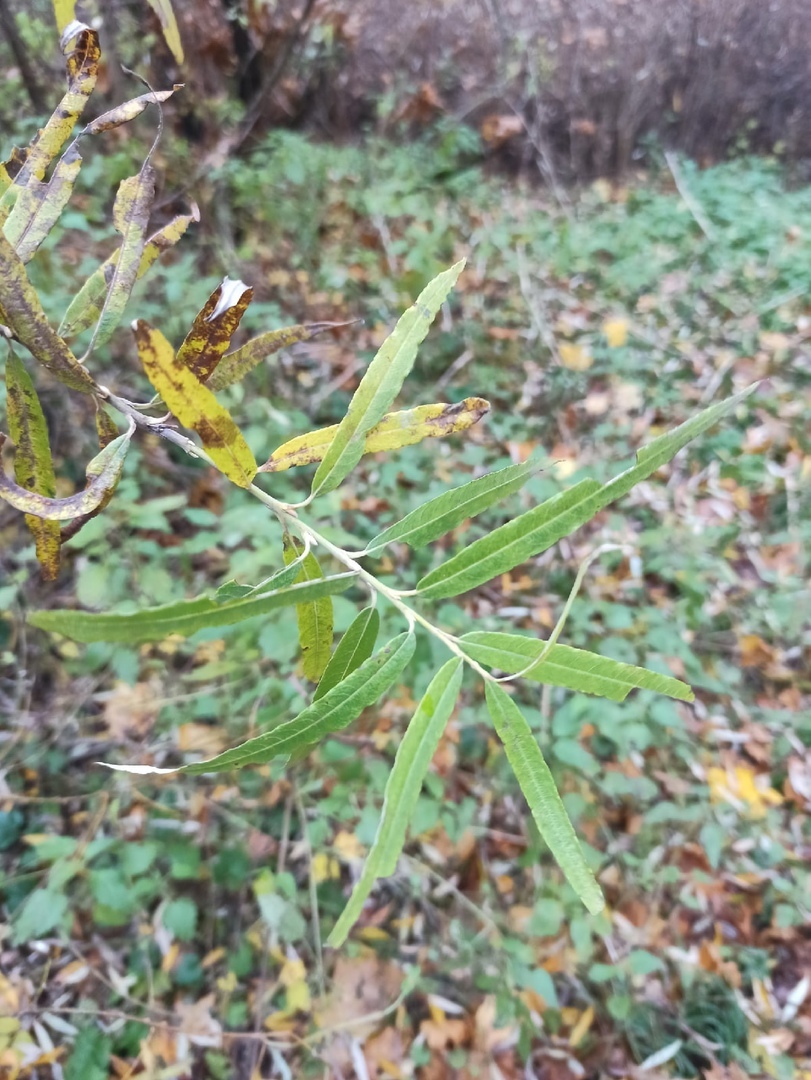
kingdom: Plantae
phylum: Tracheophyta
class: Magnoliopsida
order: Malpighiales
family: Salicaceae
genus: Salix
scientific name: Salix viminalis
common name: Osier
